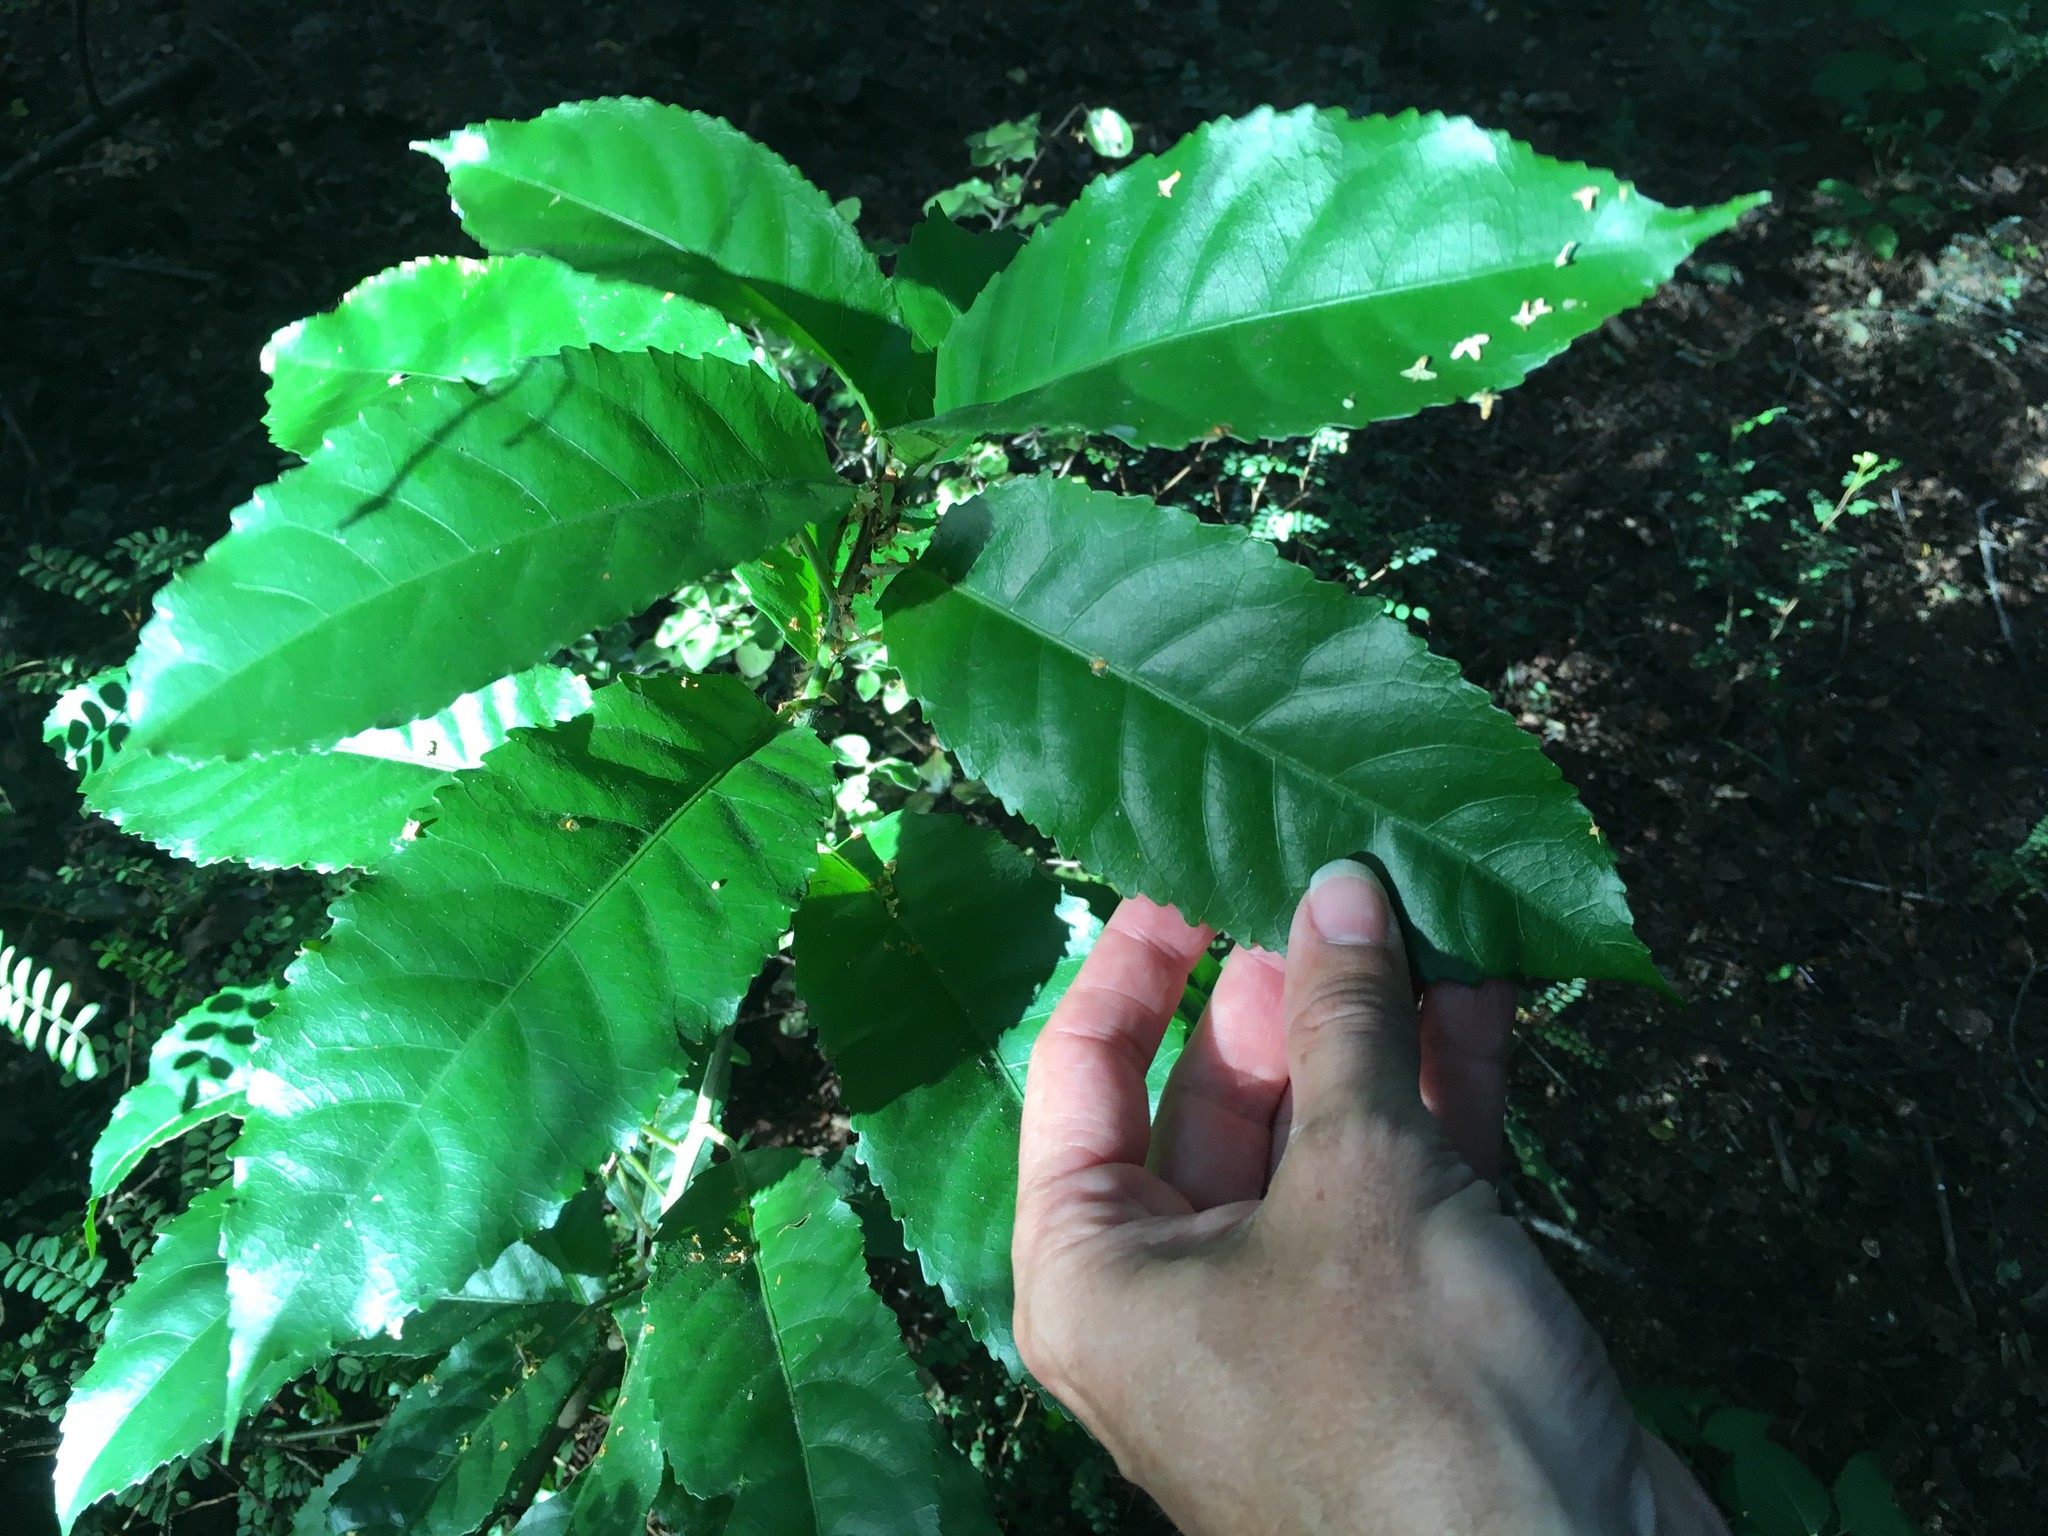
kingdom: Plantae
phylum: Tracheophyta
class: Magnoliopsida
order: Malpighiales
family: Violaceae
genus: Melicytus
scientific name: Melicytus ramiflorus
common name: Mahoe
